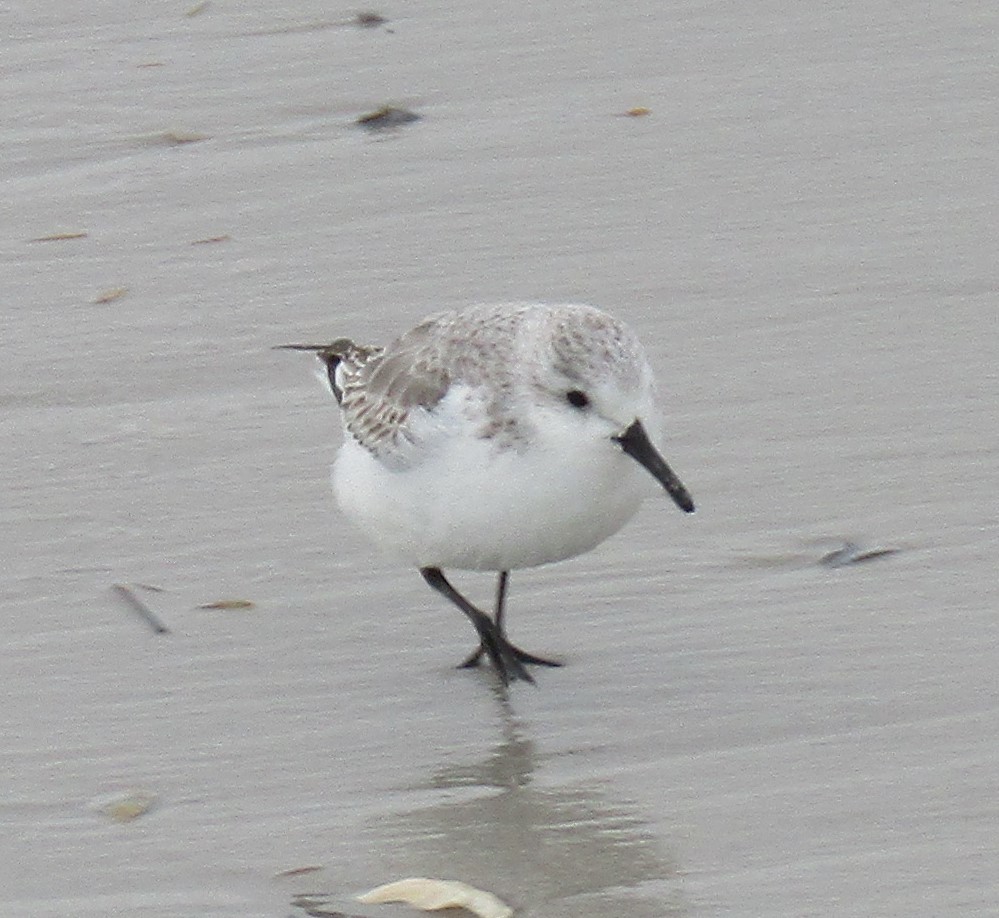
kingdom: Animalia
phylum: Chordata
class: Aves
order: Charadriiformes
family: Scolopacidae
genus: Calidris
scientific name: Calidris alba
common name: Sanderling
